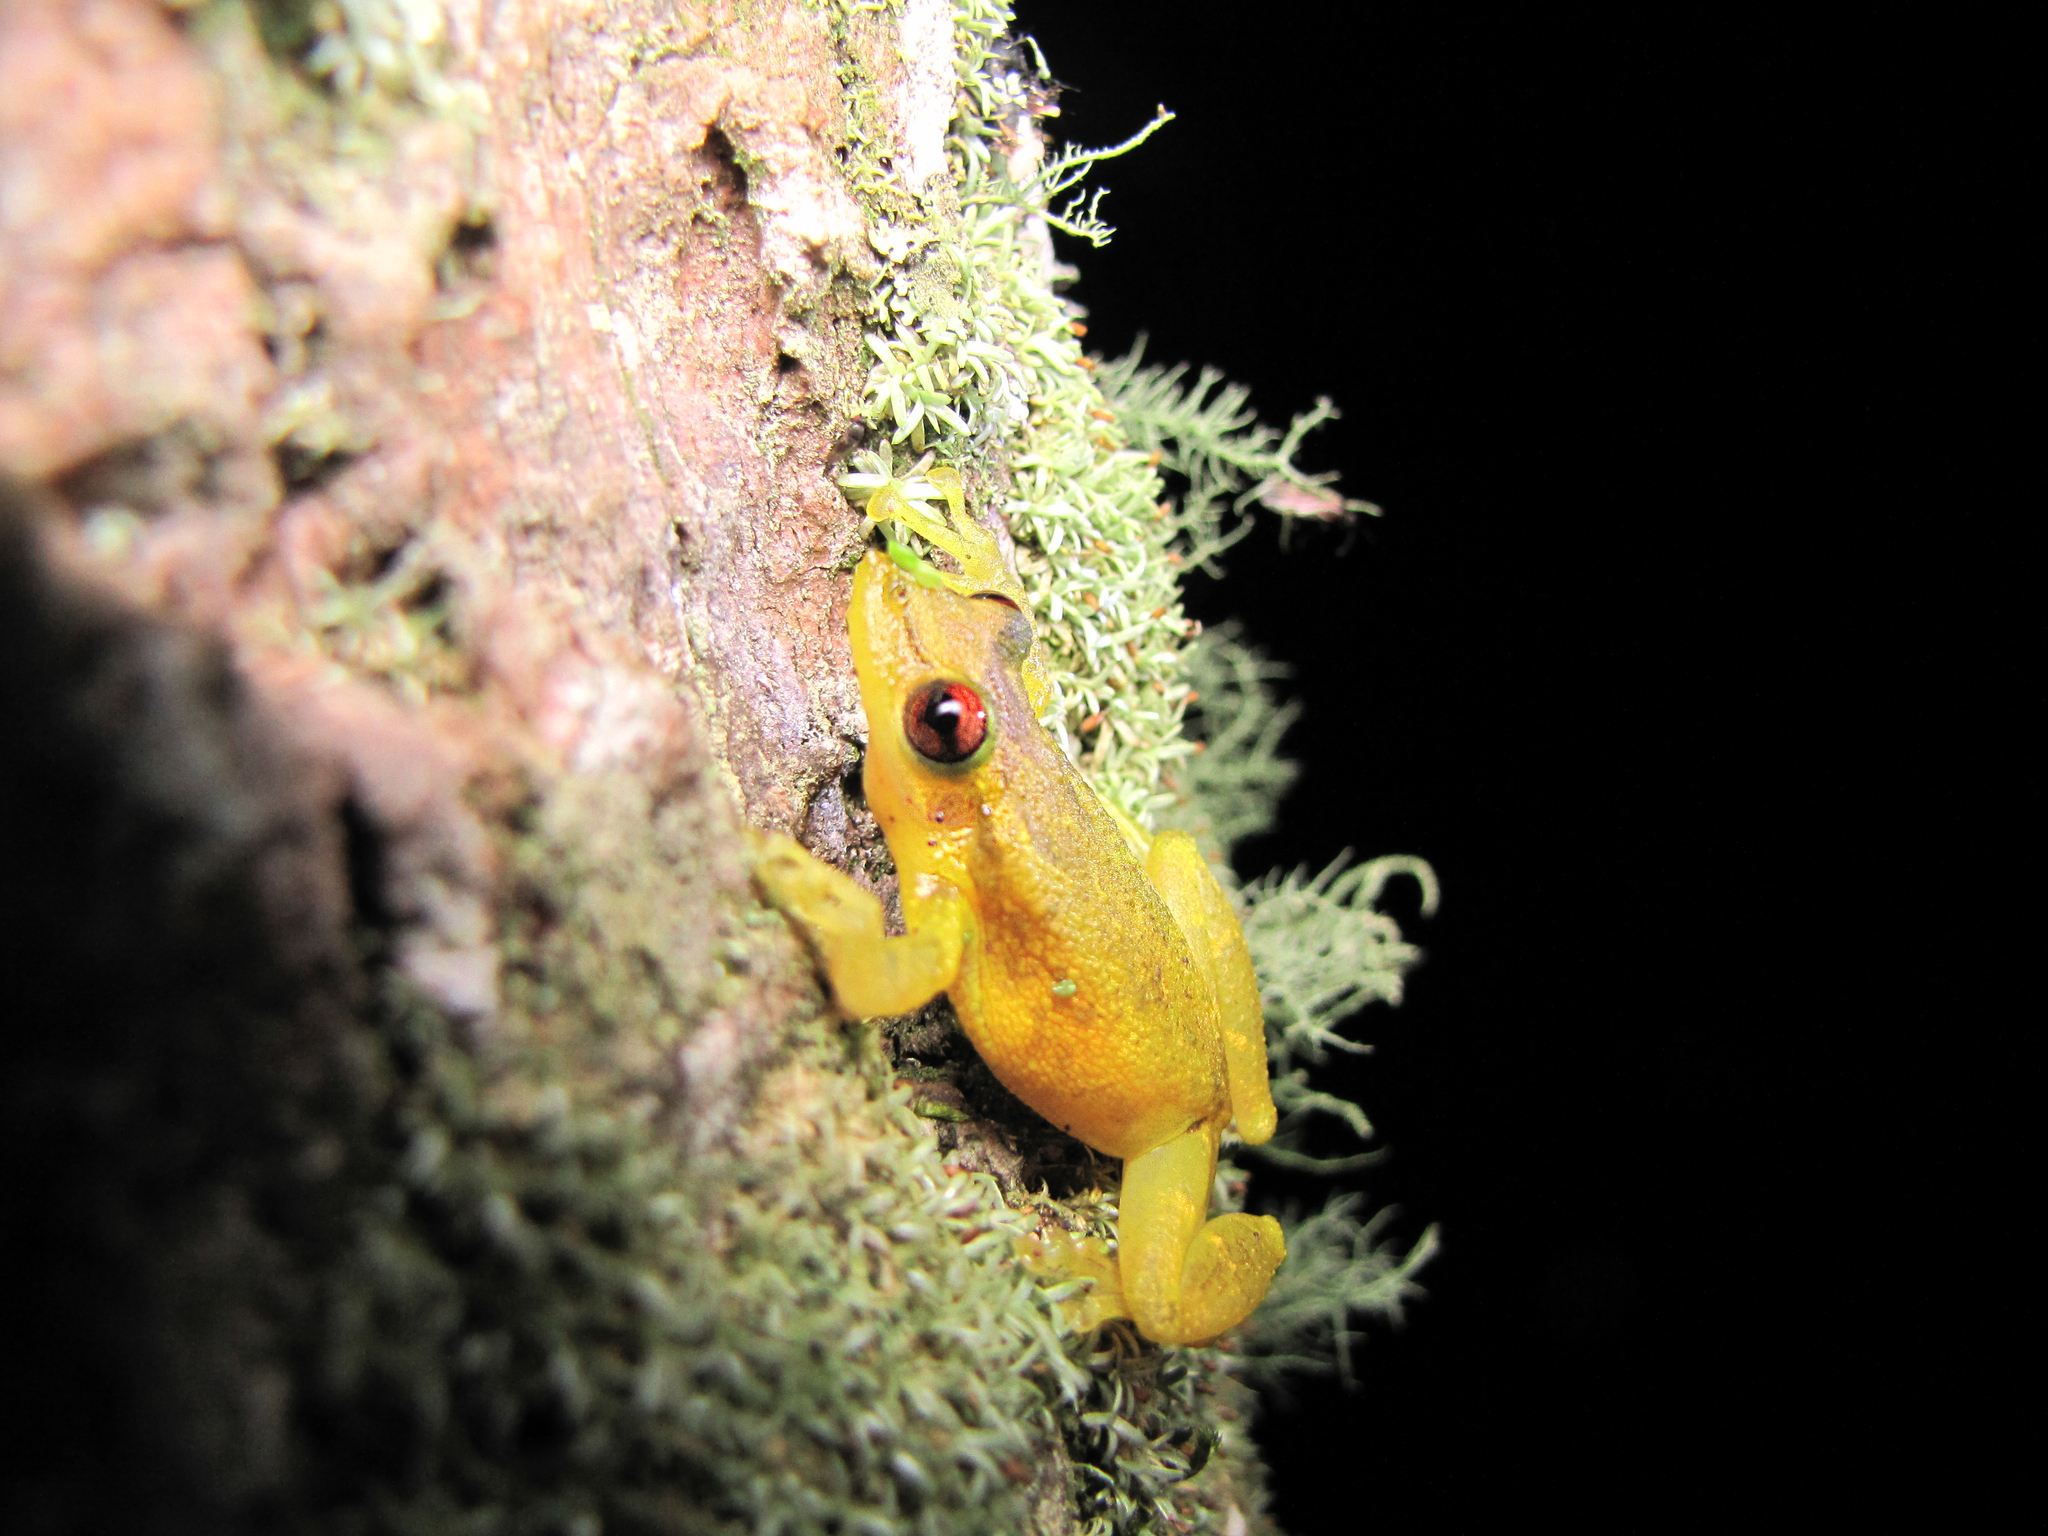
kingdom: Animalia
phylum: Chordata
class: Amphibia
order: Anura
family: Hylidae
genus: Scinax
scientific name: Scinax crospedospilus
